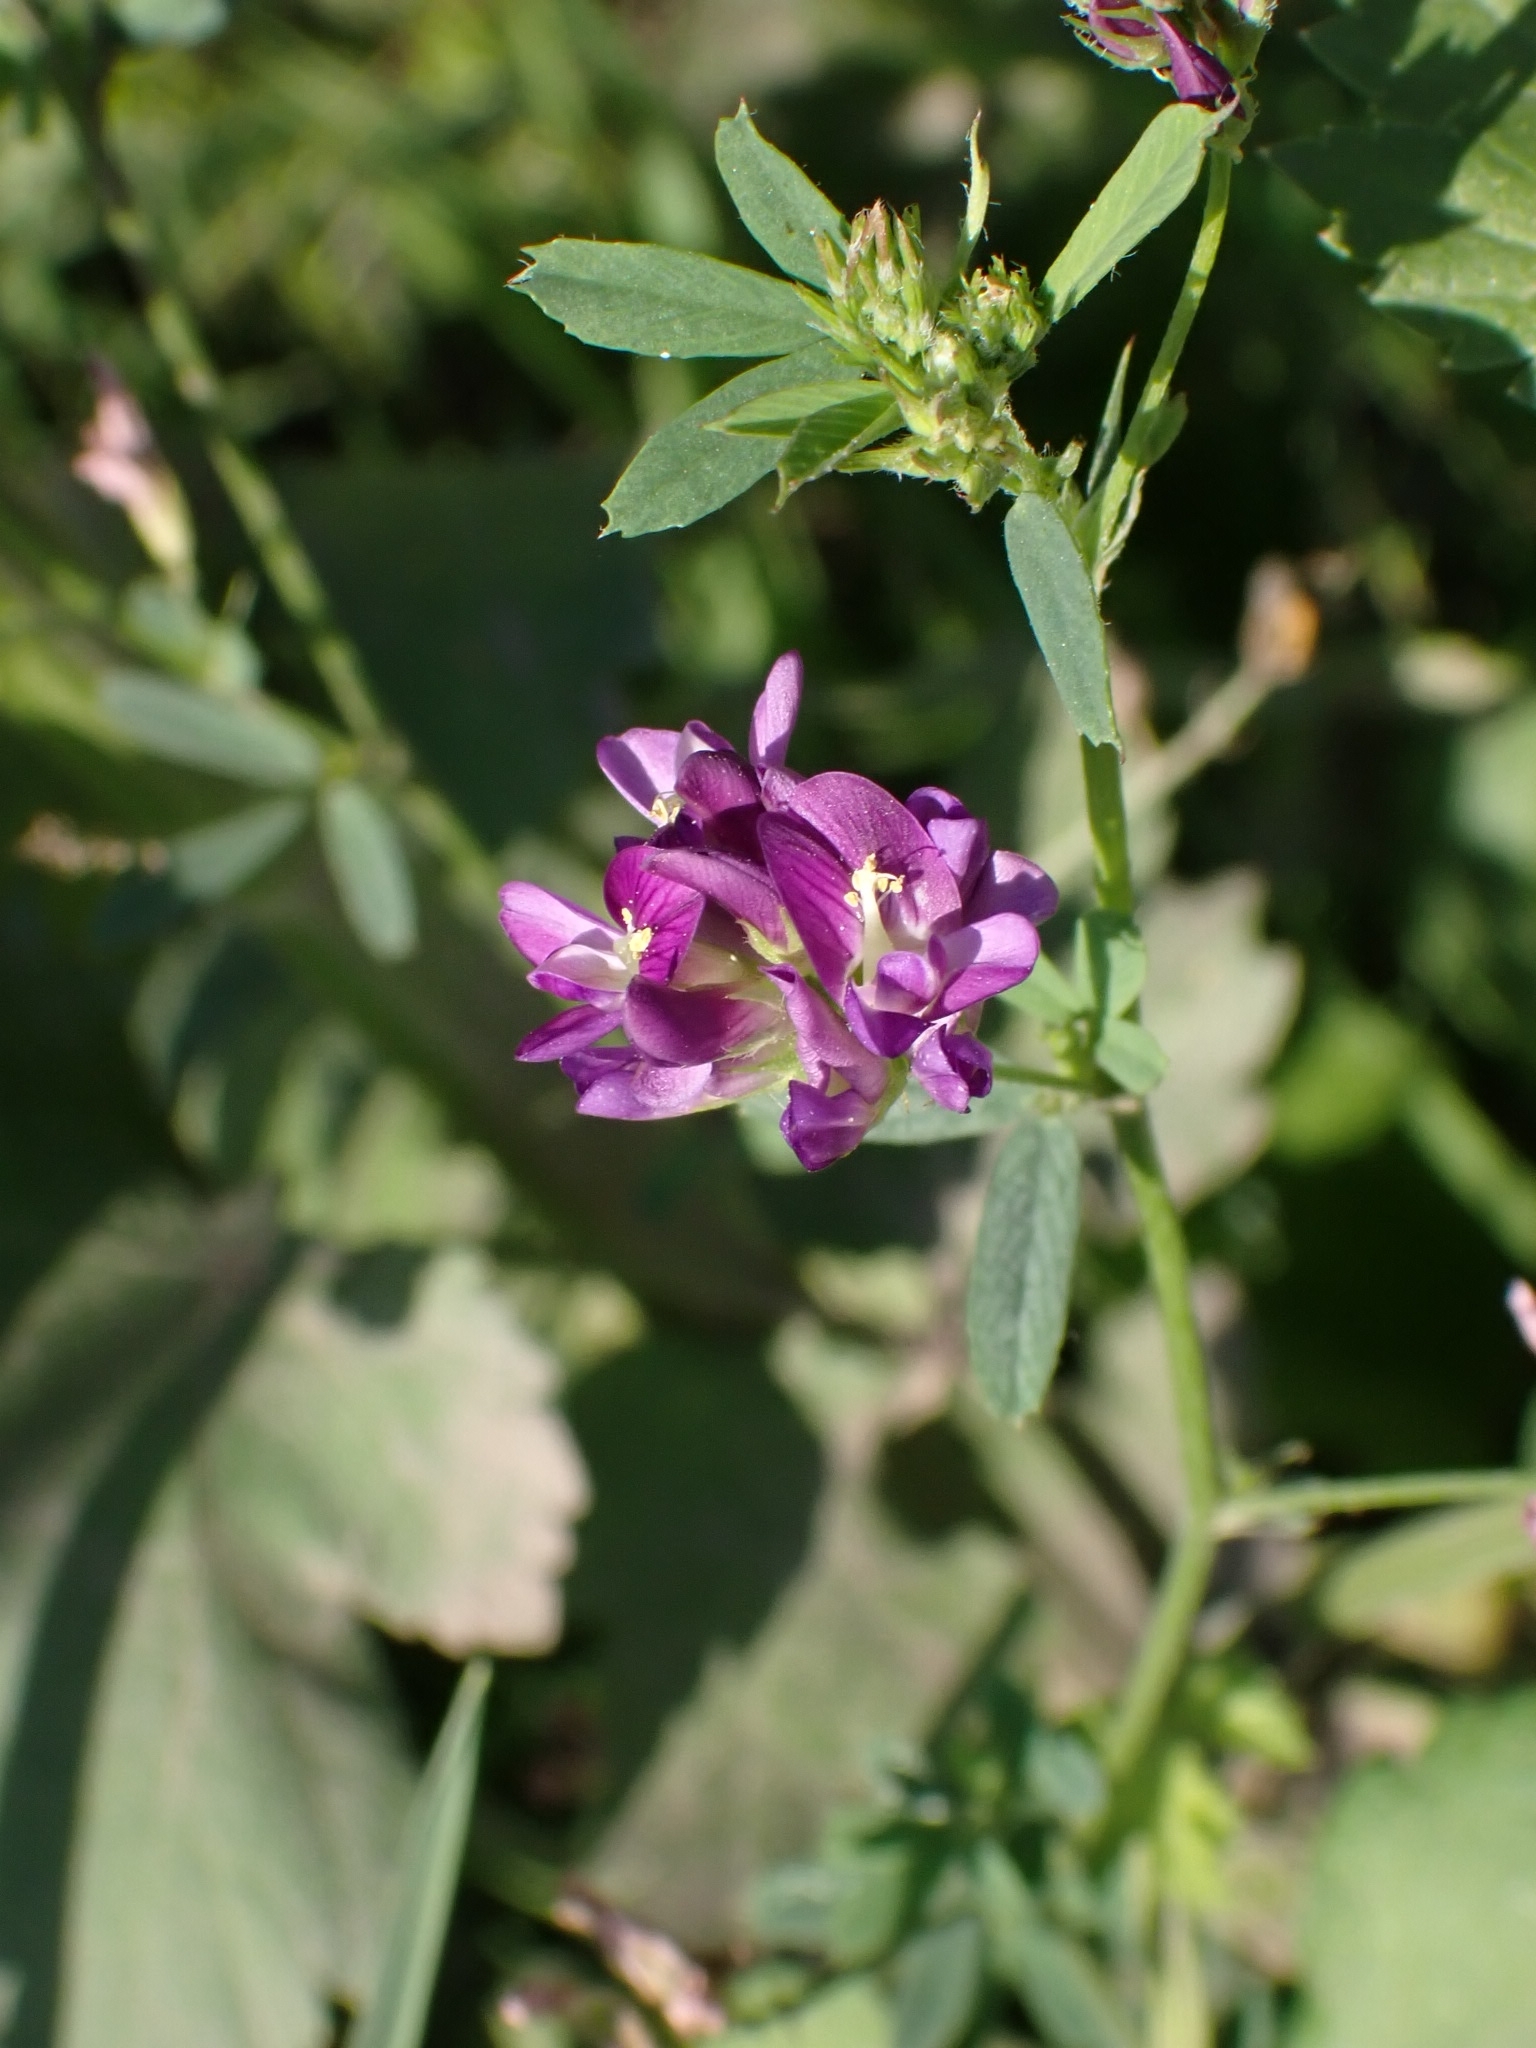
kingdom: Plantae
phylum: Tracheophyta
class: Magnoliopsida
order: Fabales
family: Fabaceae
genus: Medicago
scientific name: Medicago sativa
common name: Alfalfa
